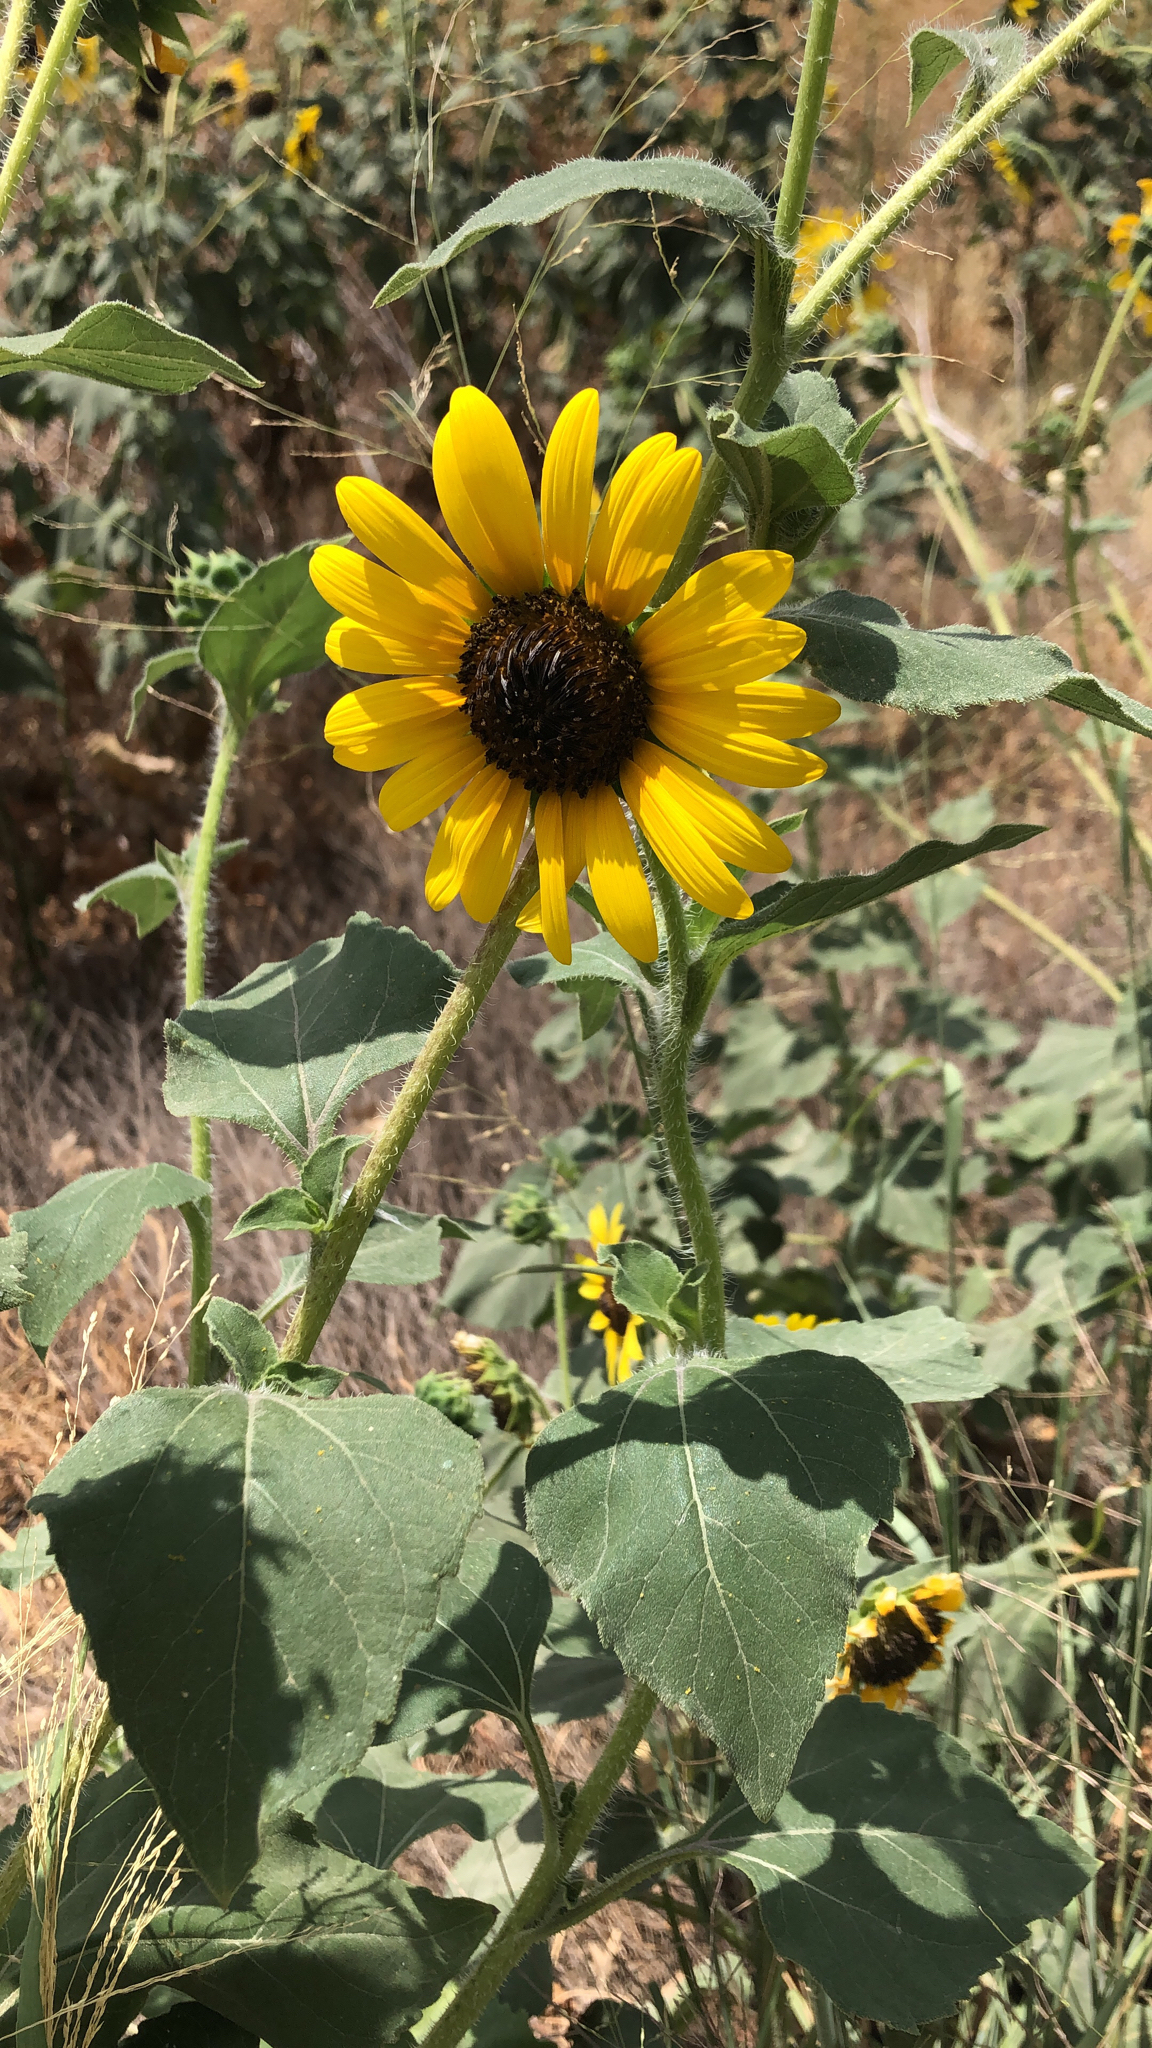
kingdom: Plantae
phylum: Tracheophyta
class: Magnoliopsida
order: Asterales
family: Asteraceae
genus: Helianthus
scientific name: Helianthus annuus
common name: Sunflower
